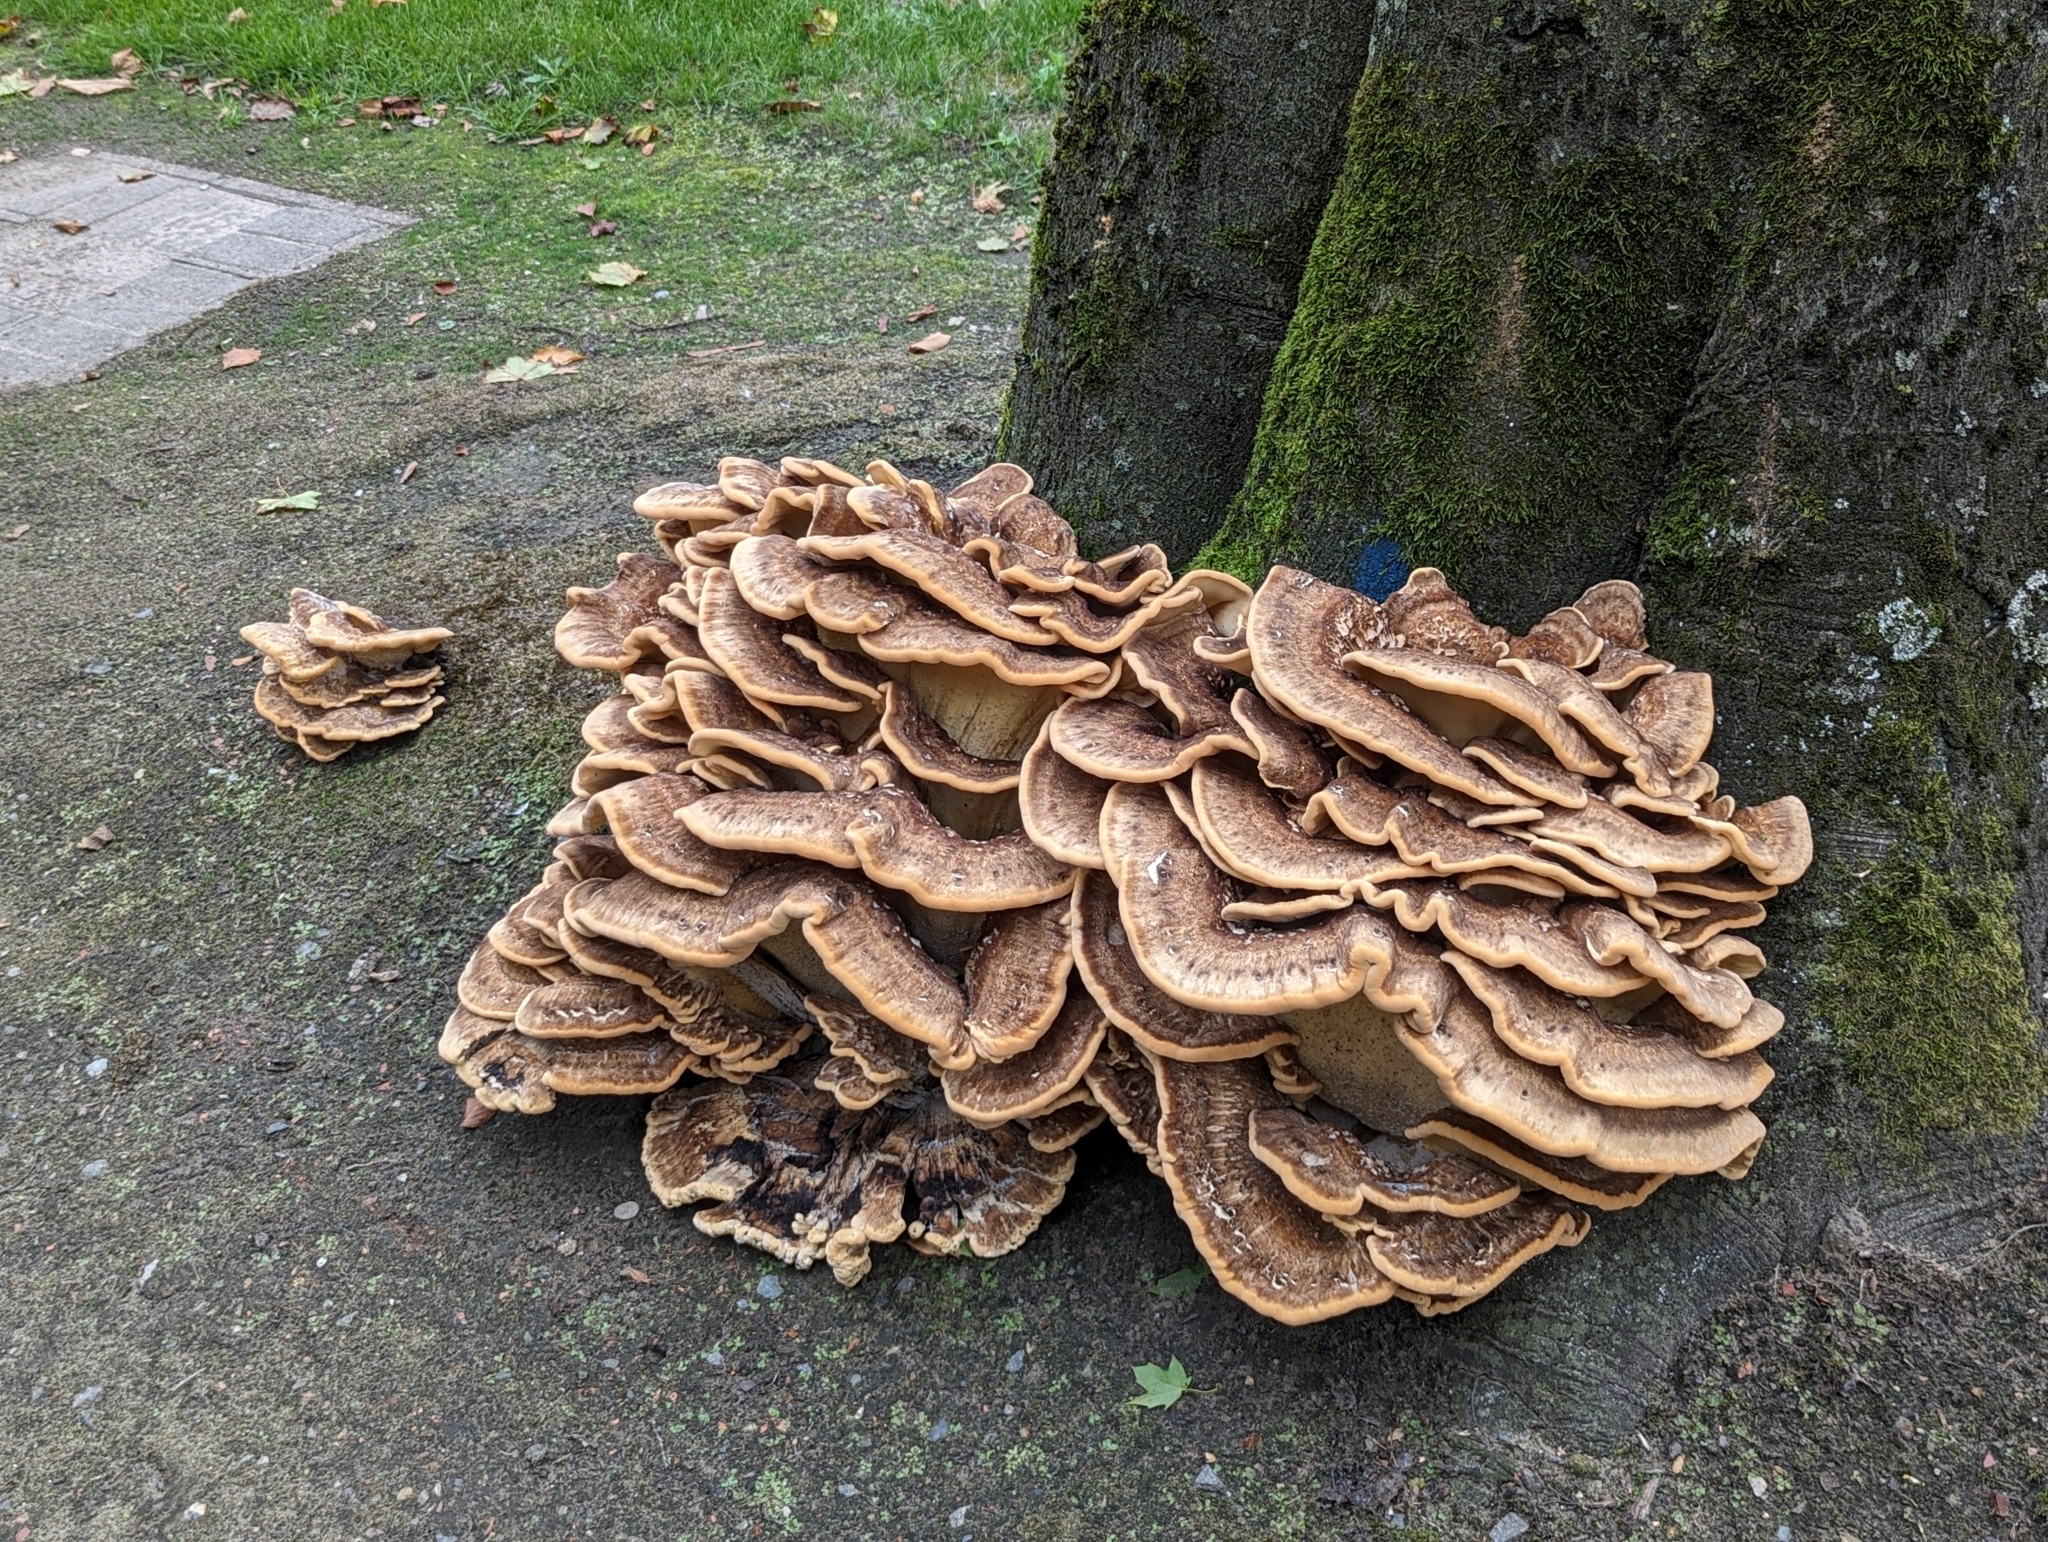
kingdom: Fungi
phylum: Basidiomycota
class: Agaricomycetes
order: Polyporales
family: Meripilaceae
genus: Meripilus
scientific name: Meripilus giganteus
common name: Giant polypore
